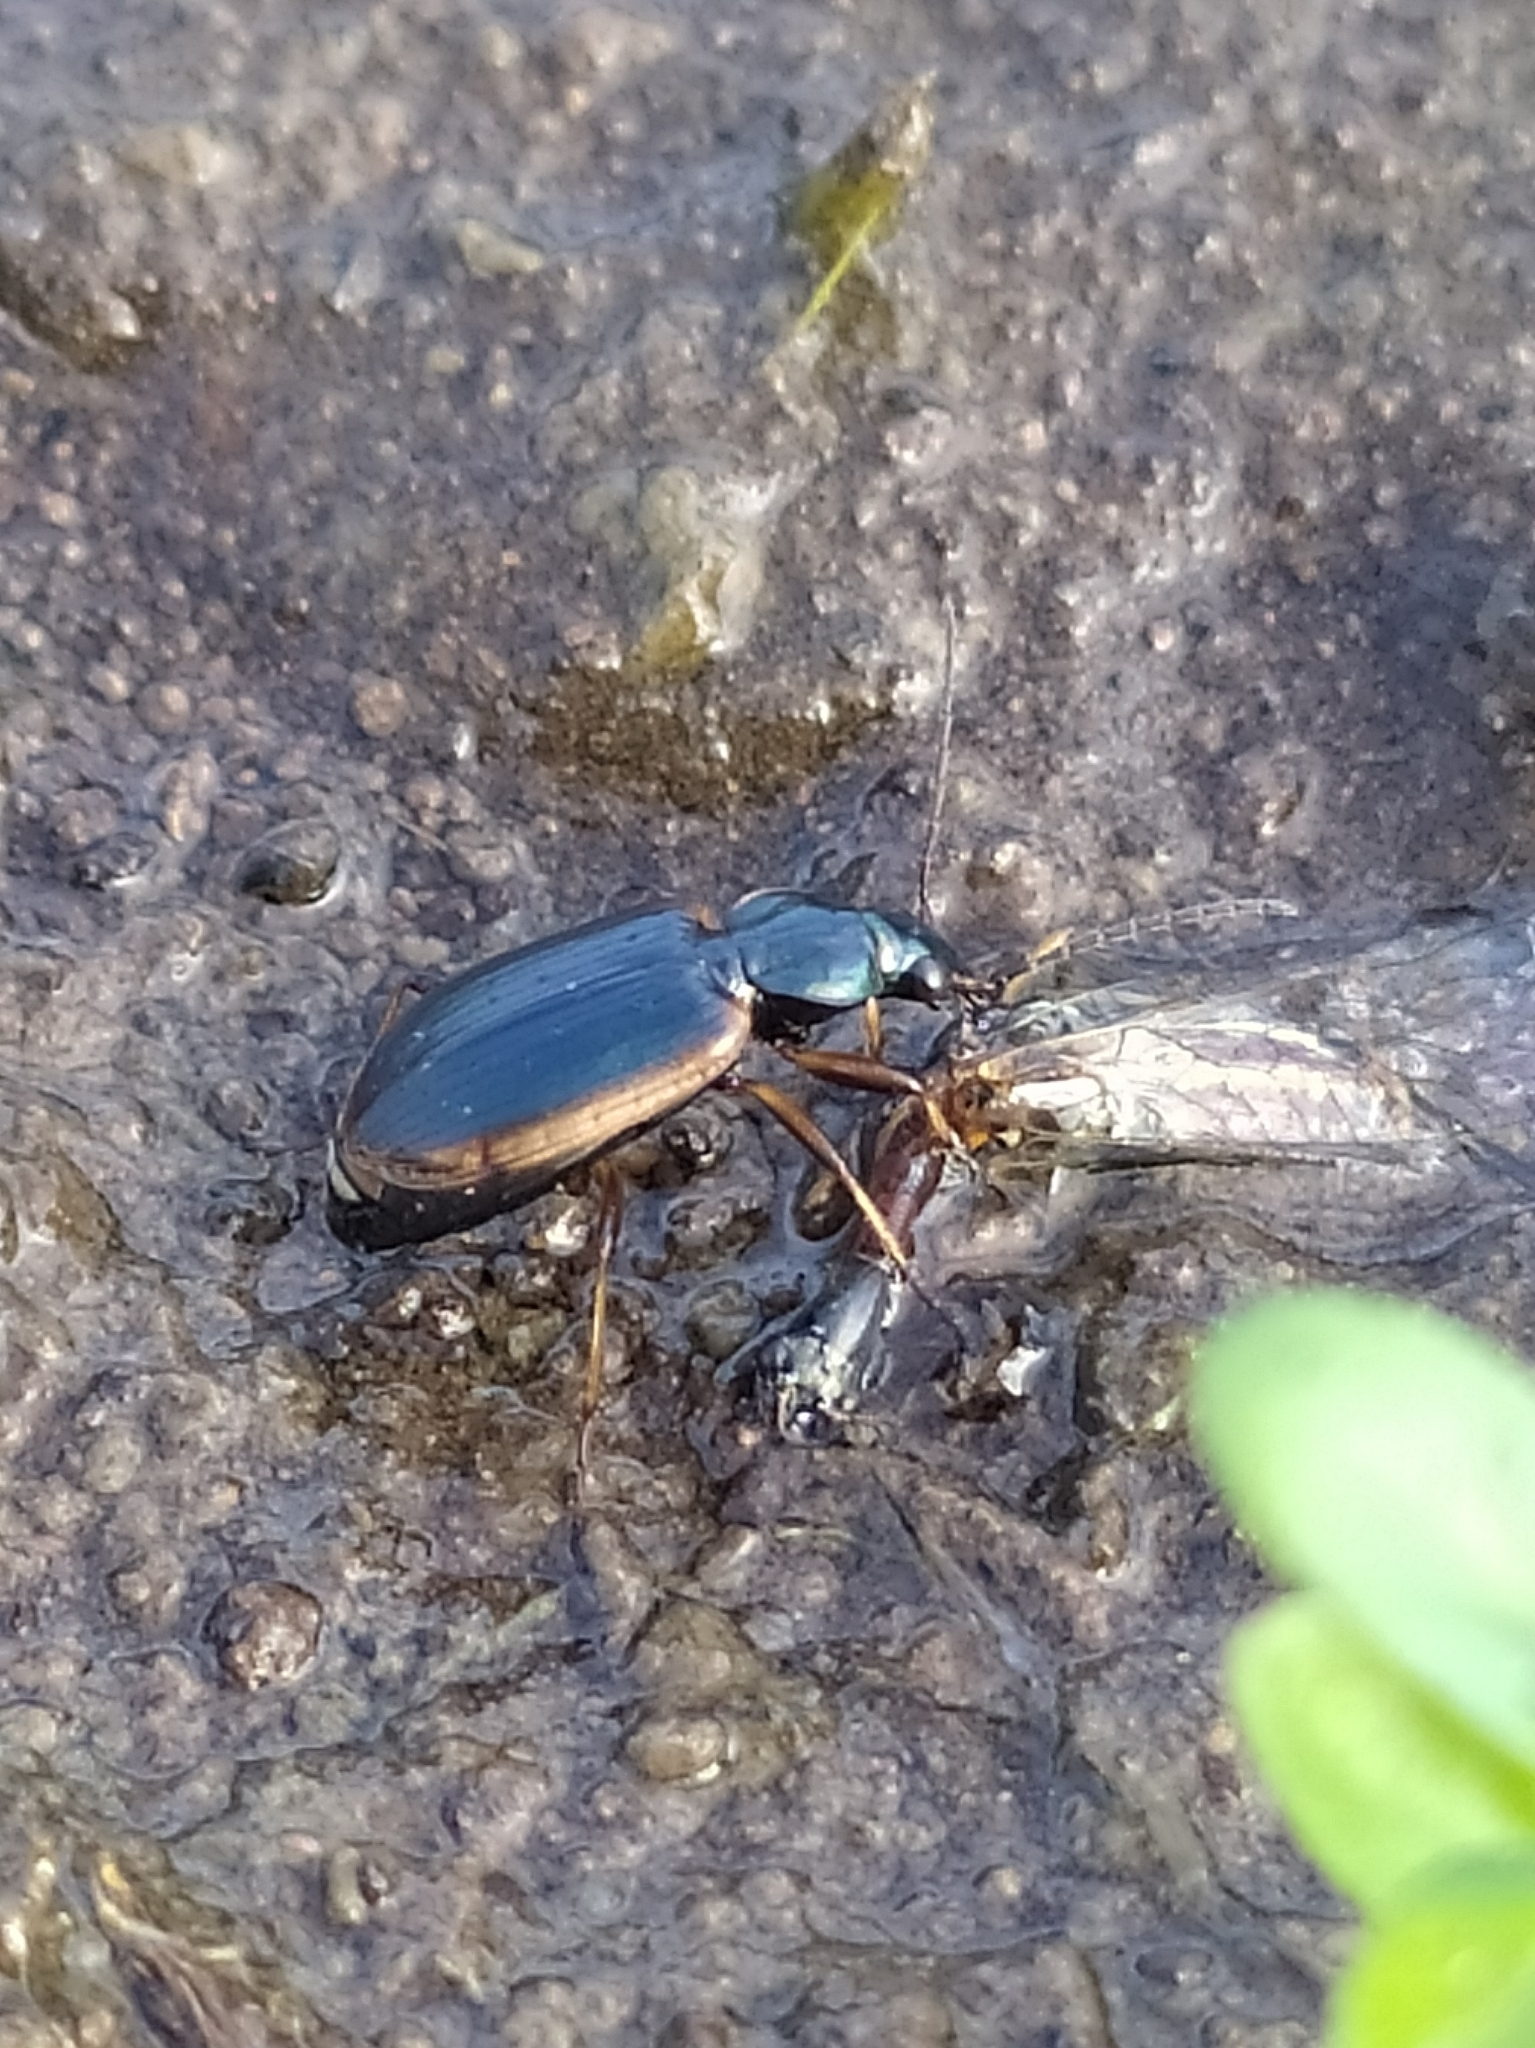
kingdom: Animalia
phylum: Arthropoda
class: Insecta
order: Coleoptera
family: Carabidae
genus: Agonum
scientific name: Agonum marginatum
